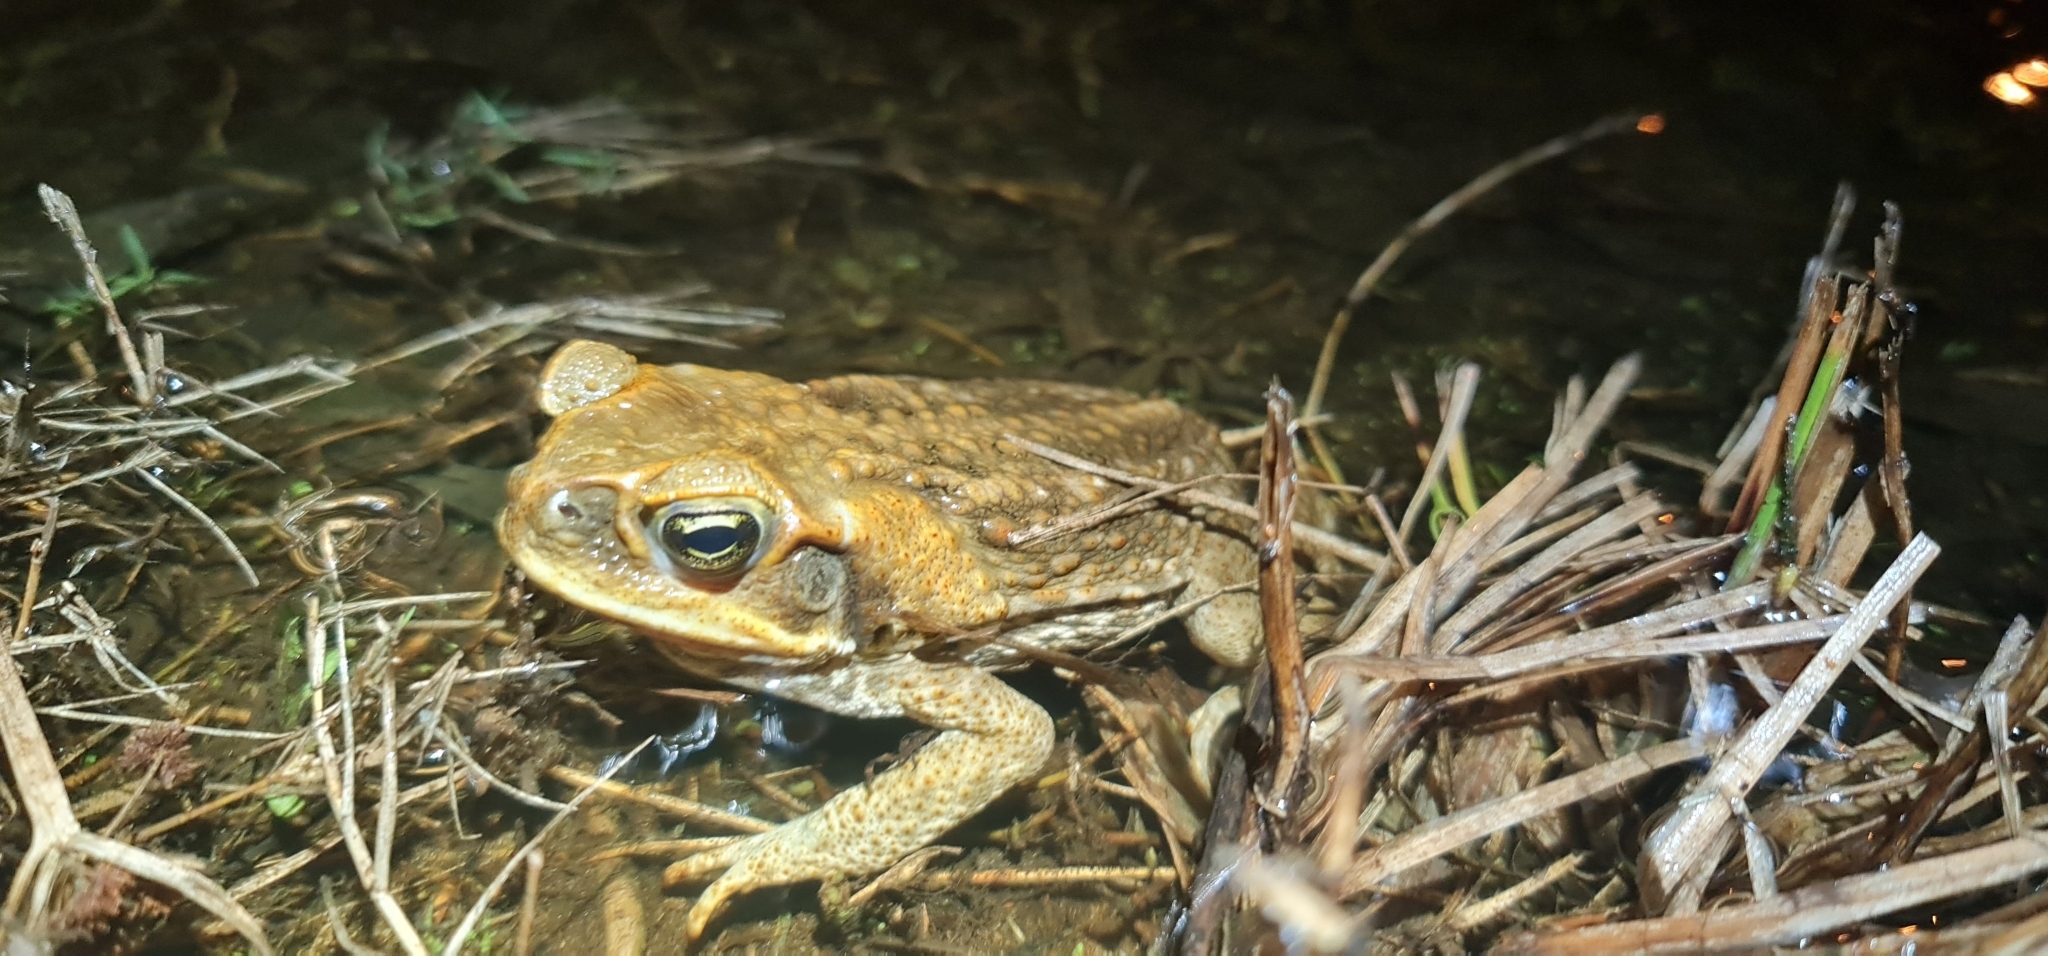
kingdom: Animalia
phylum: Chordata
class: Amphibia
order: Anura
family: Bufonidae
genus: Rhinella
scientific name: Rhinella marina
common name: Cane toad
